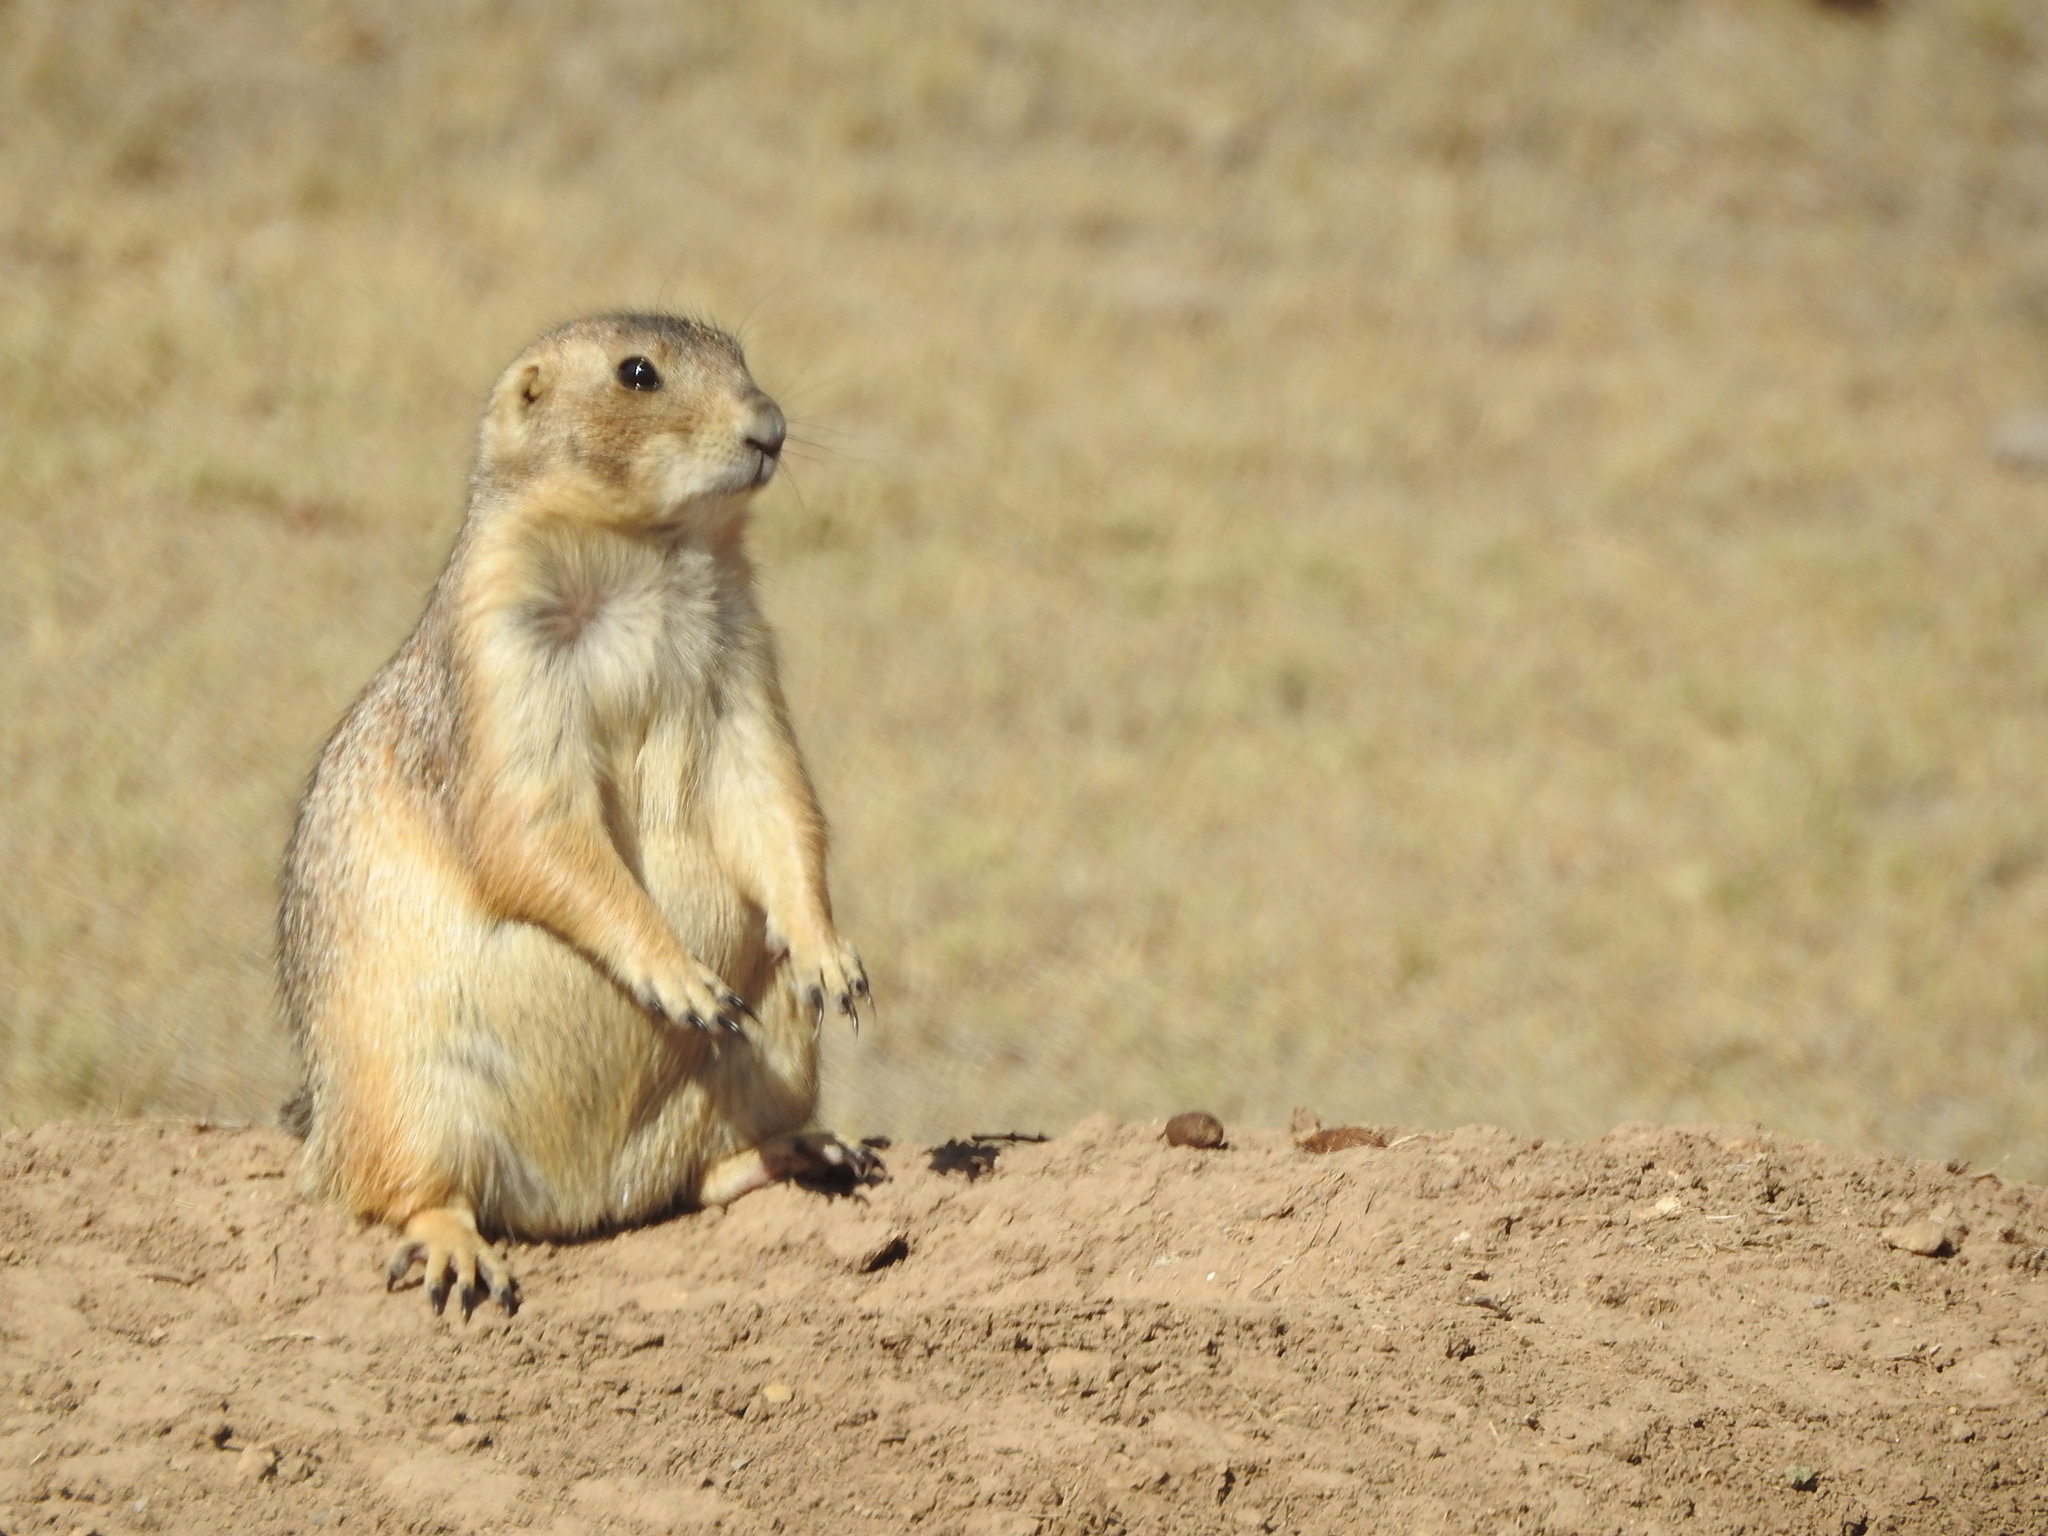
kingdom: Animalia
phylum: Chordata
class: Mammalia
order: Rodentia
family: Sciuridae
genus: Cynomys
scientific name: Cynomys mexicanus
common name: Mexican prairie dog
